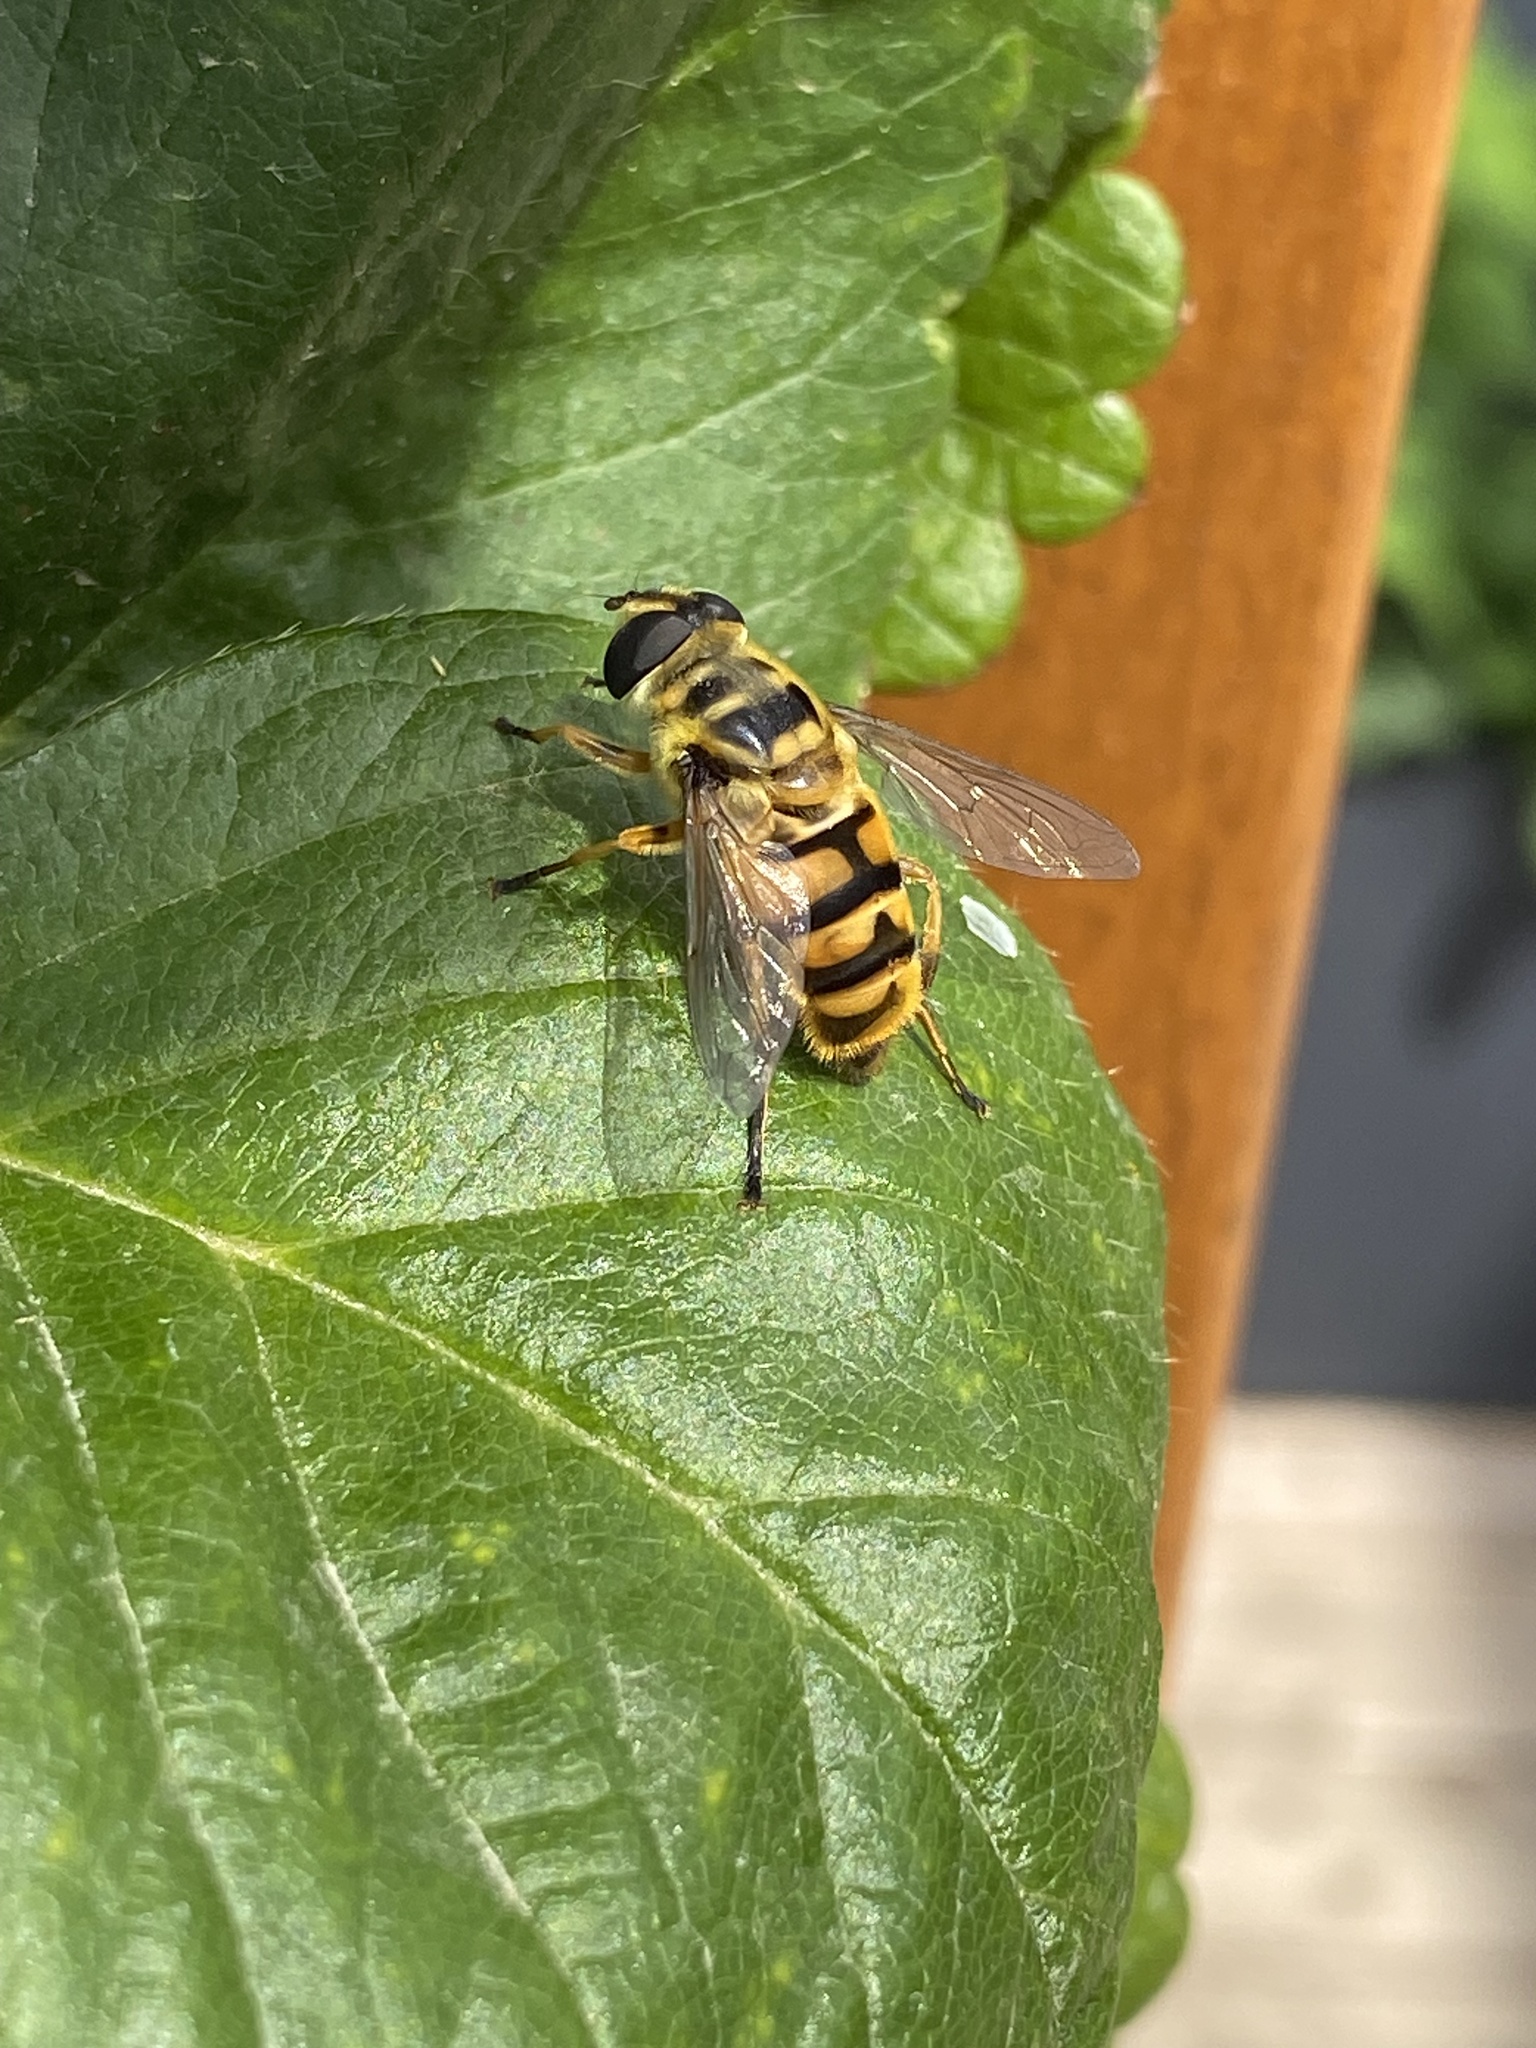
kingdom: Animalia
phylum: Arthropoda
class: Insecta
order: Diptera
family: Syrphidae
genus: Myathropa
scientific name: Myathropa florea
